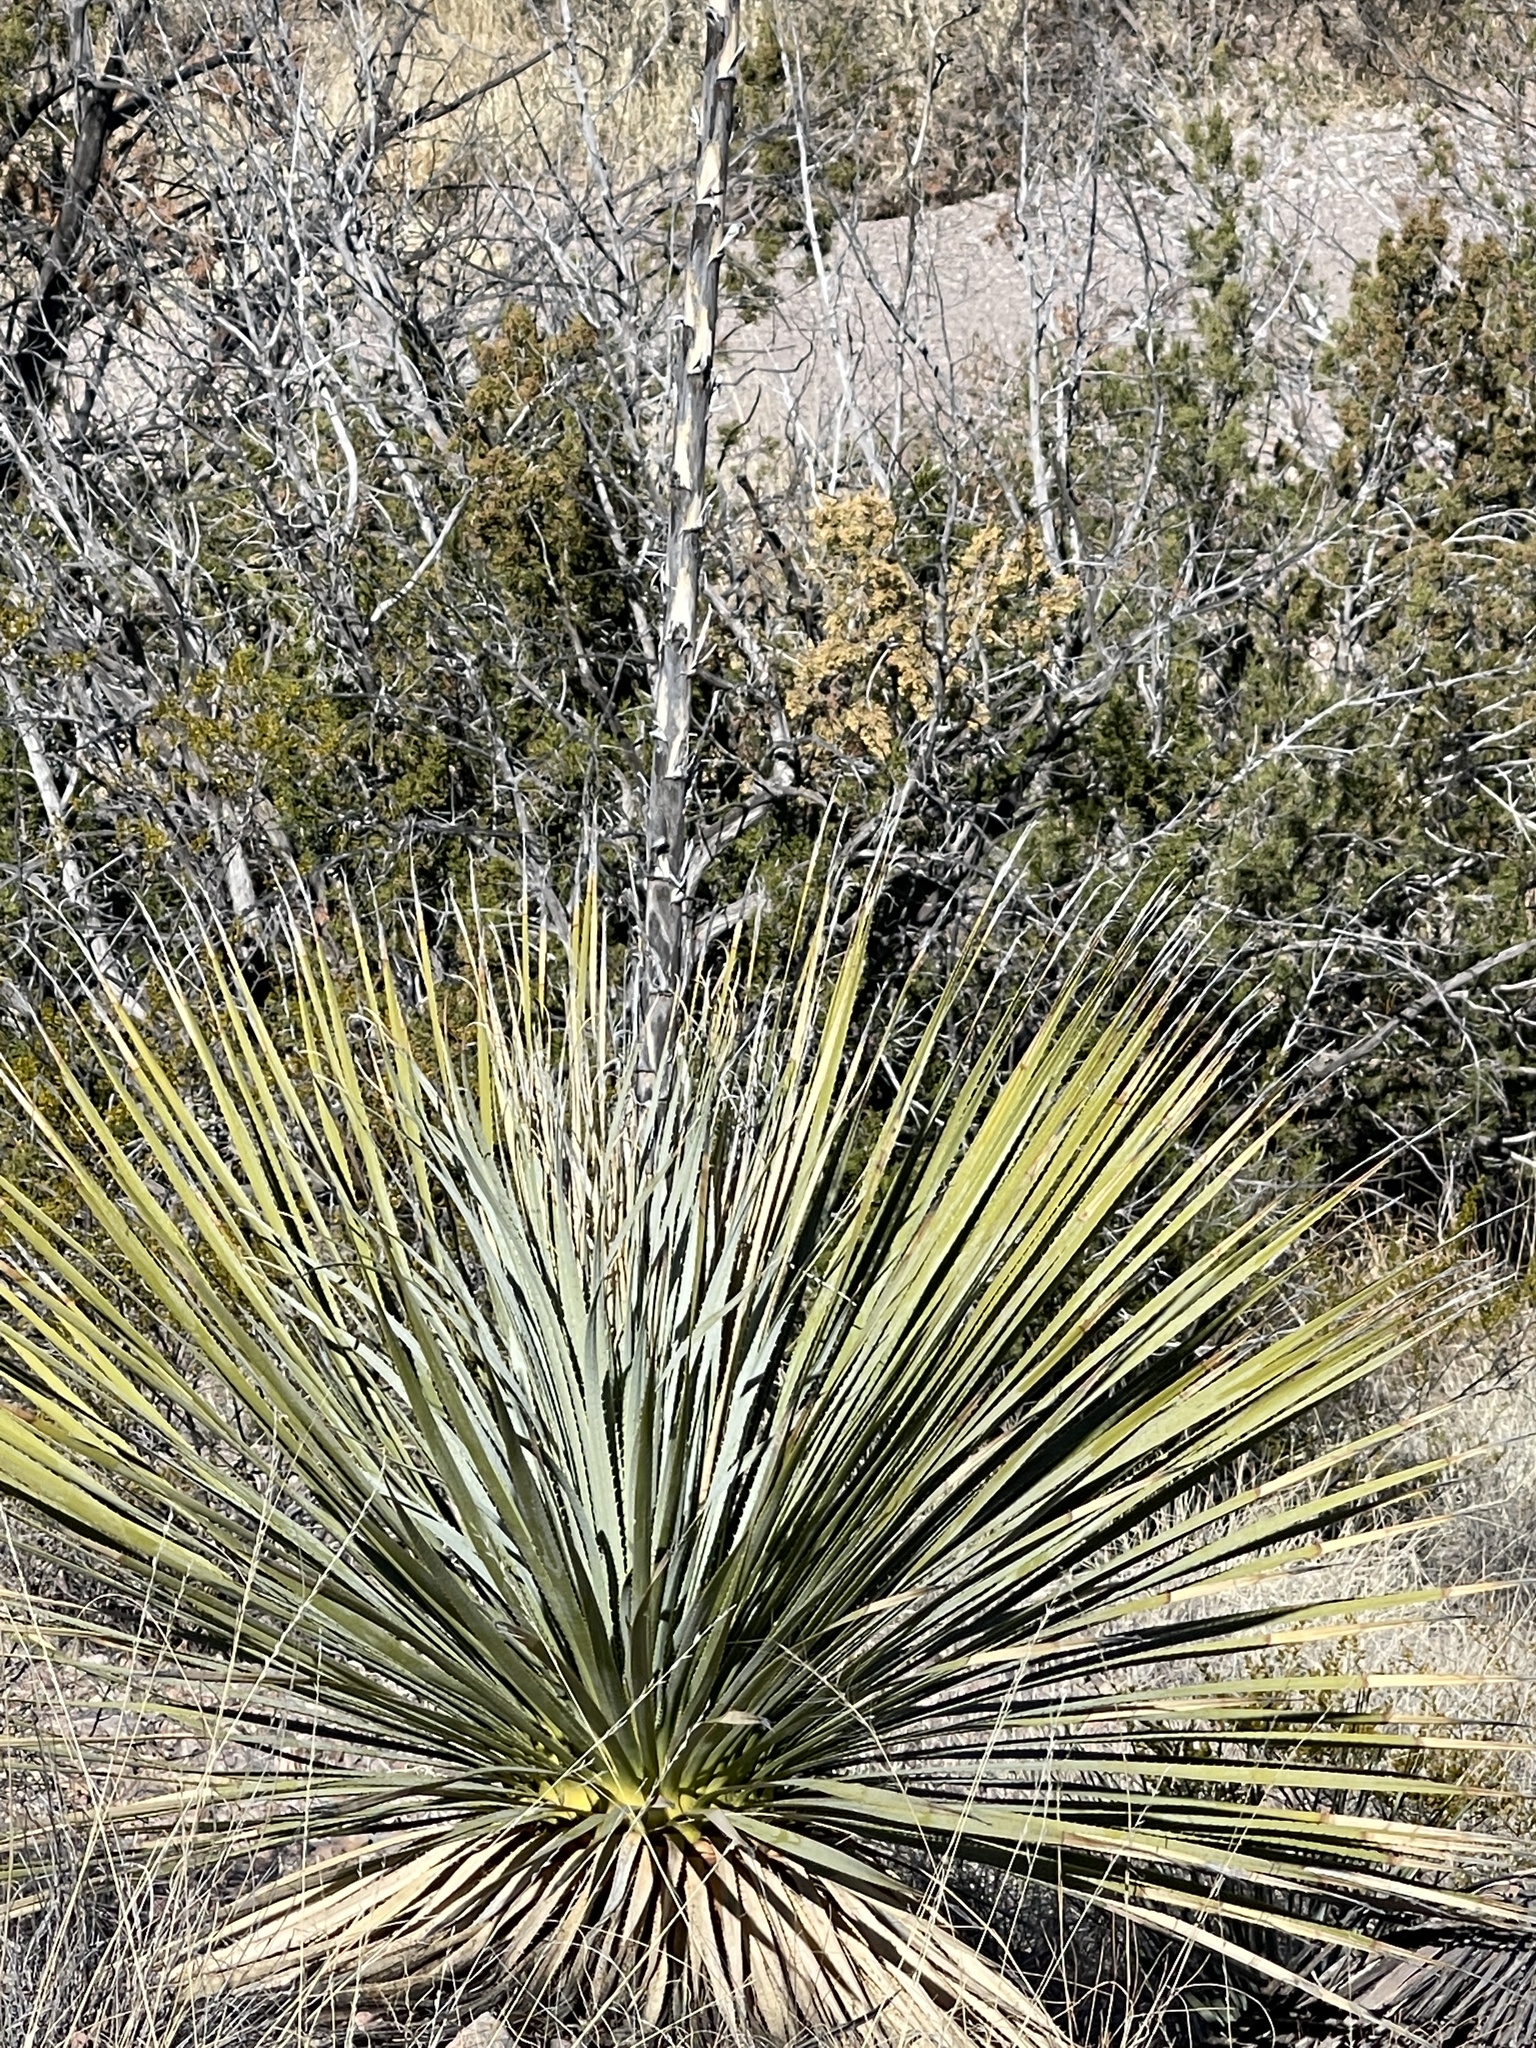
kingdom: Plantae
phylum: Tracheophyta
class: Liliopsida
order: Asparagales
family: Asparagaceae
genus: Dasylirion
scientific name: Dasylirion wheeleri
